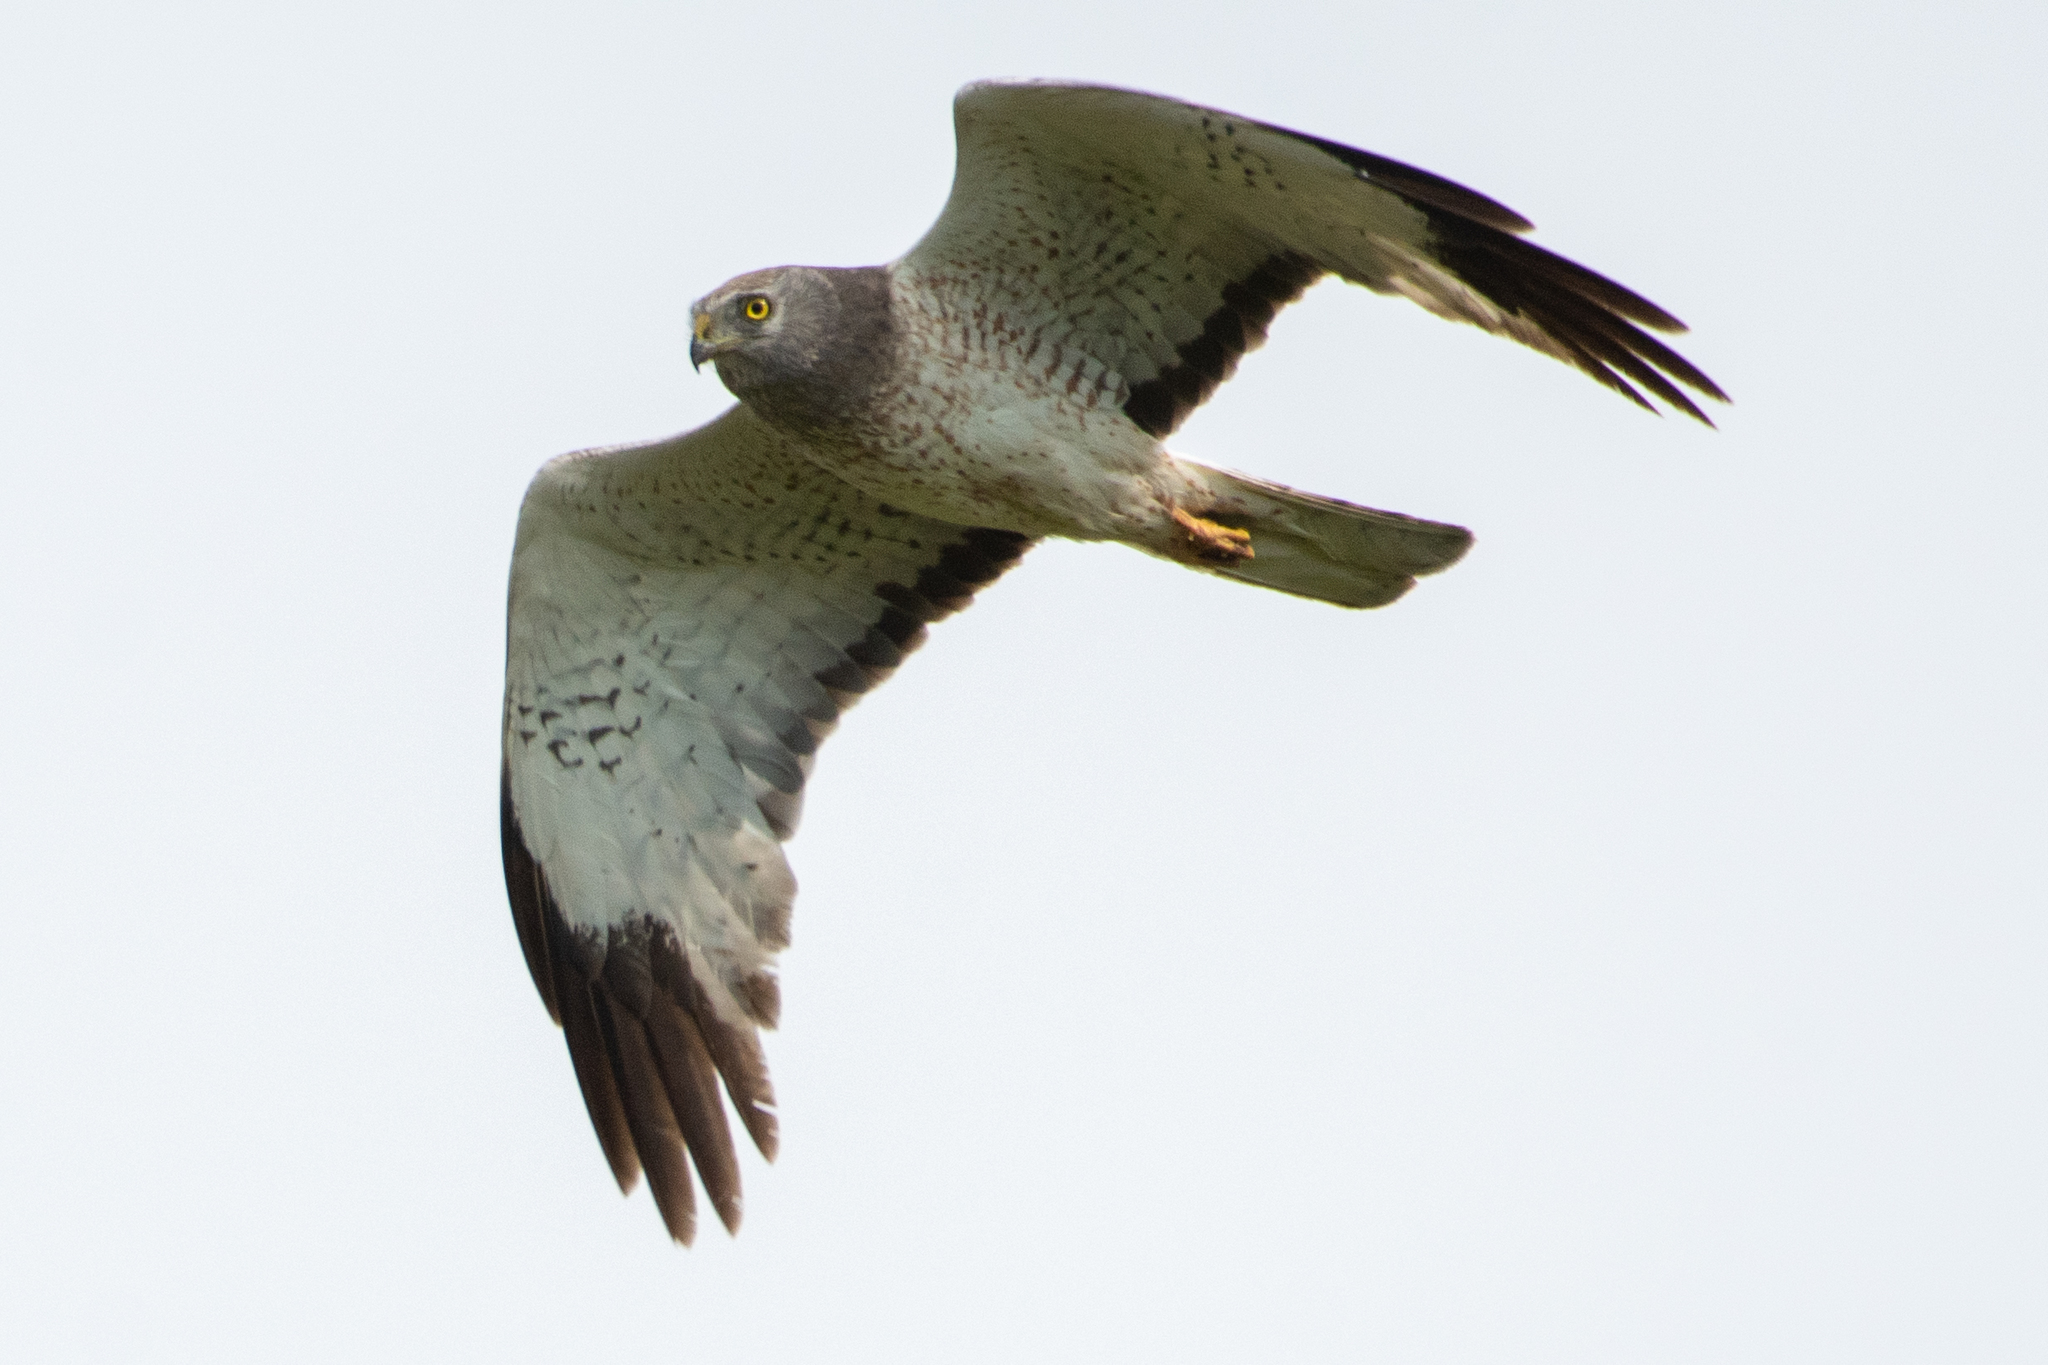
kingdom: Animalia
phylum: Chordata
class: Aves
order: Accipitriformes
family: Accipitridae
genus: Circus
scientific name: Circus cyaneus
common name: Hen harrier
